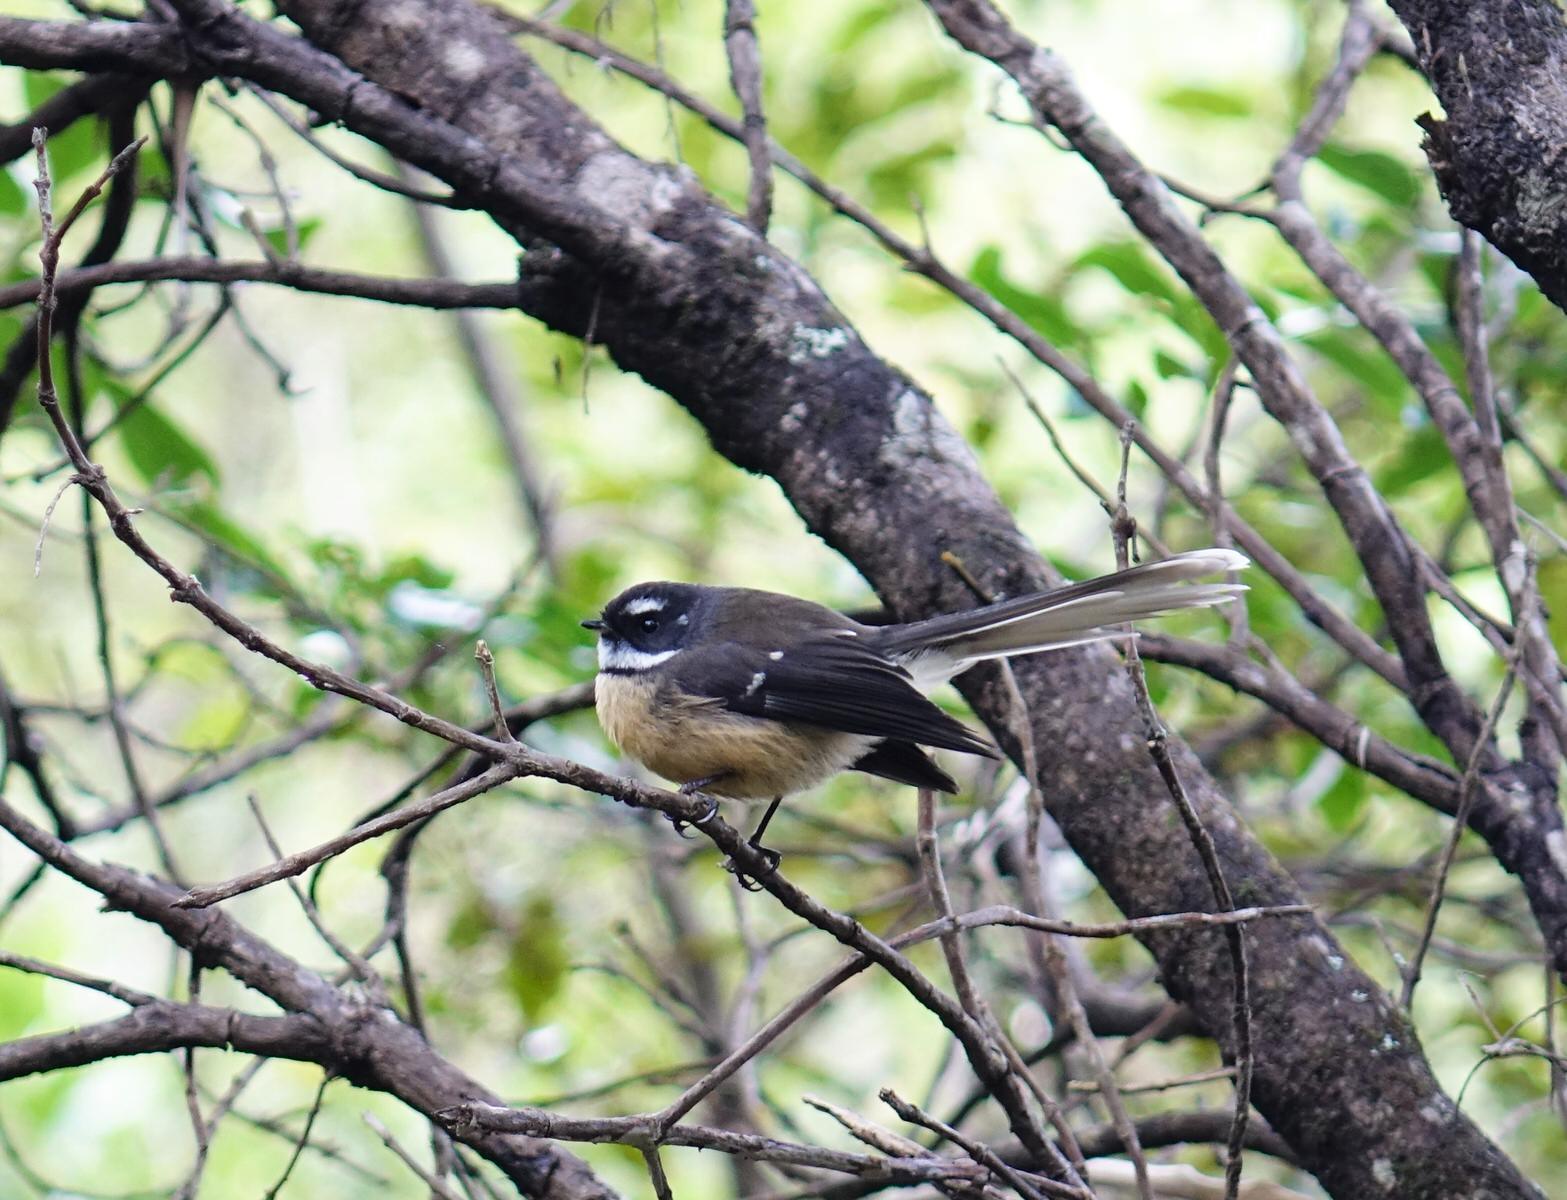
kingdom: Animalia
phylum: Chordata
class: Aves
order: Passeriformes
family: Rhipiduridae
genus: Rhipidura
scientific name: Rhipidura fuliginosa
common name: New zealand fantail
